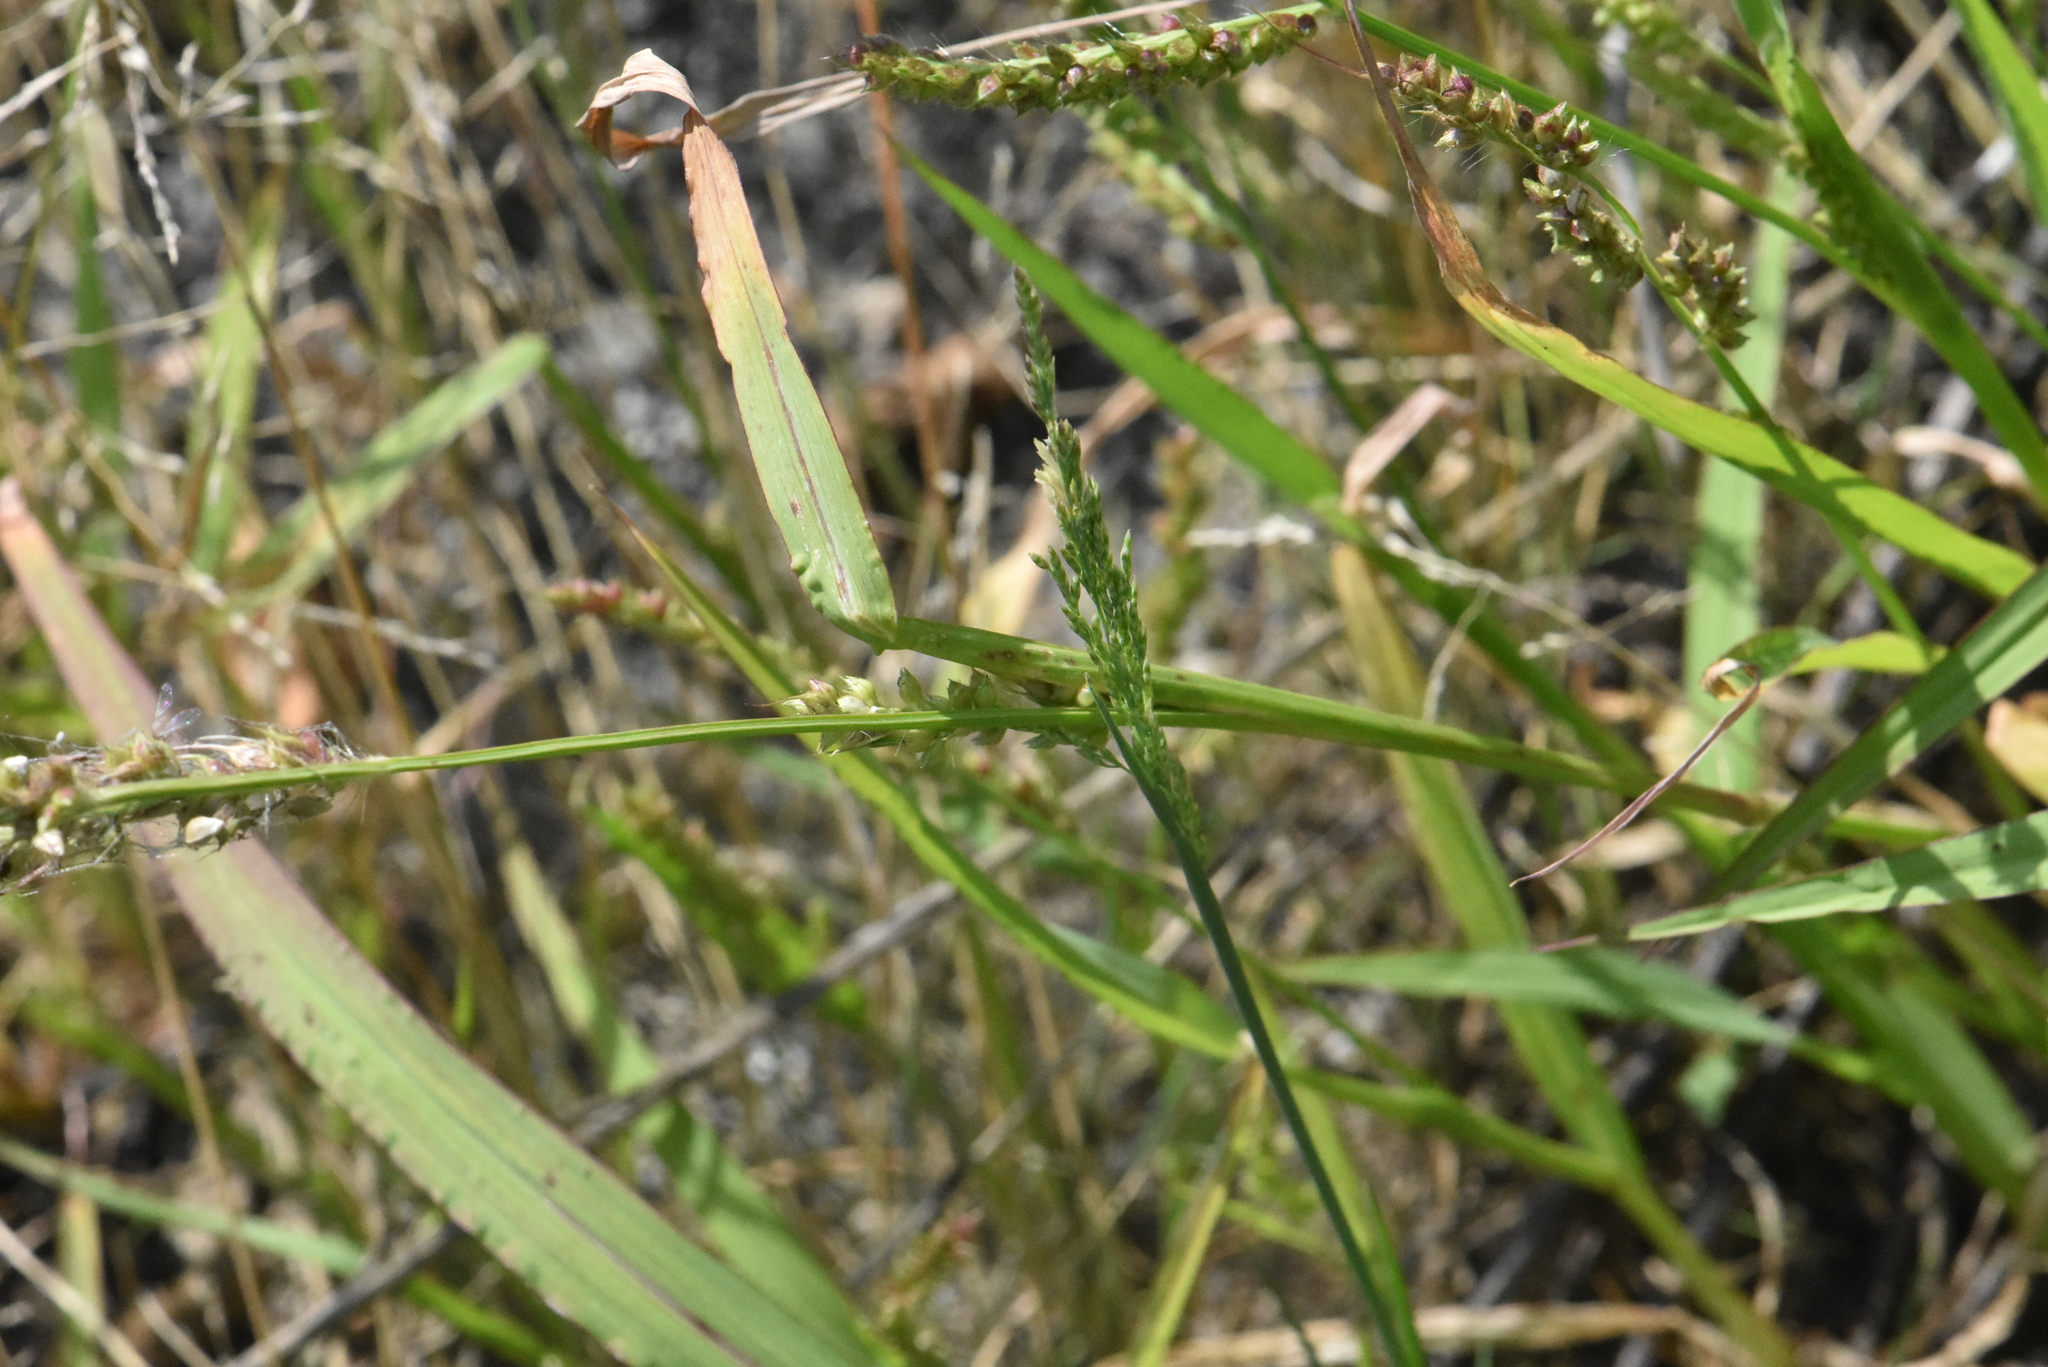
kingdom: Plantae
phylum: Tracheophyta
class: Liliopsida
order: Poales
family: Poaceae
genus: Echinochloa
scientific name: Echinochloa crus-galli
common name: Cockspur
